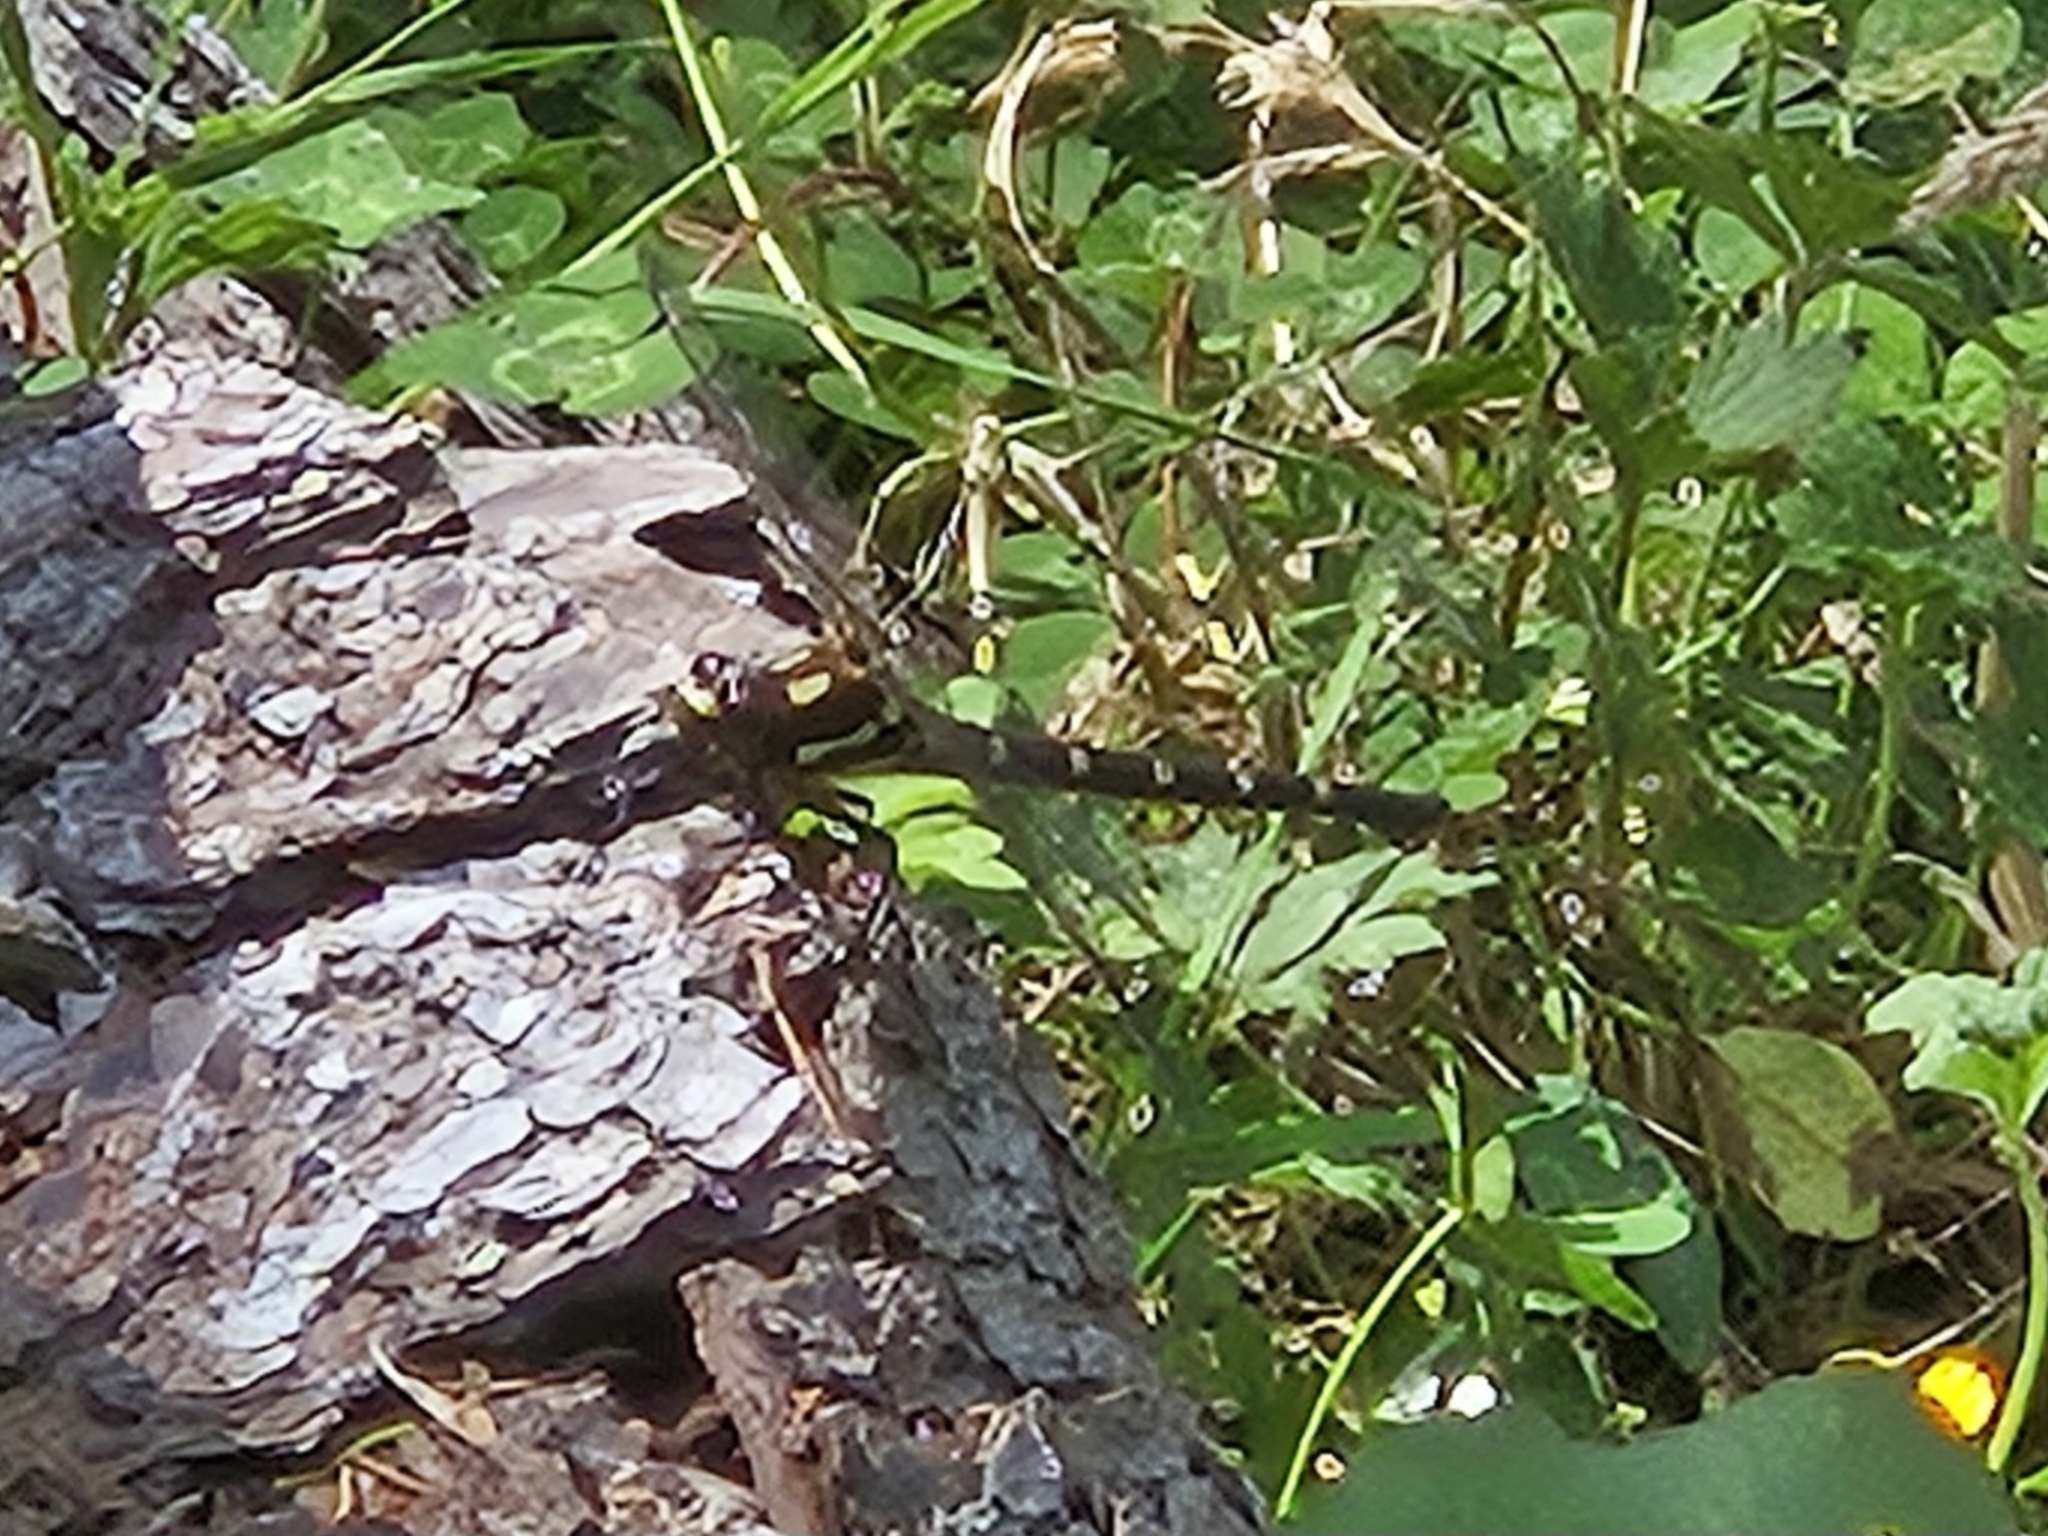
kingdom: Animalia
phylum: Arthropoda
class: Insecta
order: Odonata
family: Petaluridae
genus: Uropetala
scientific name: Uropetala carovei
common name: Bush giant dragonfly
